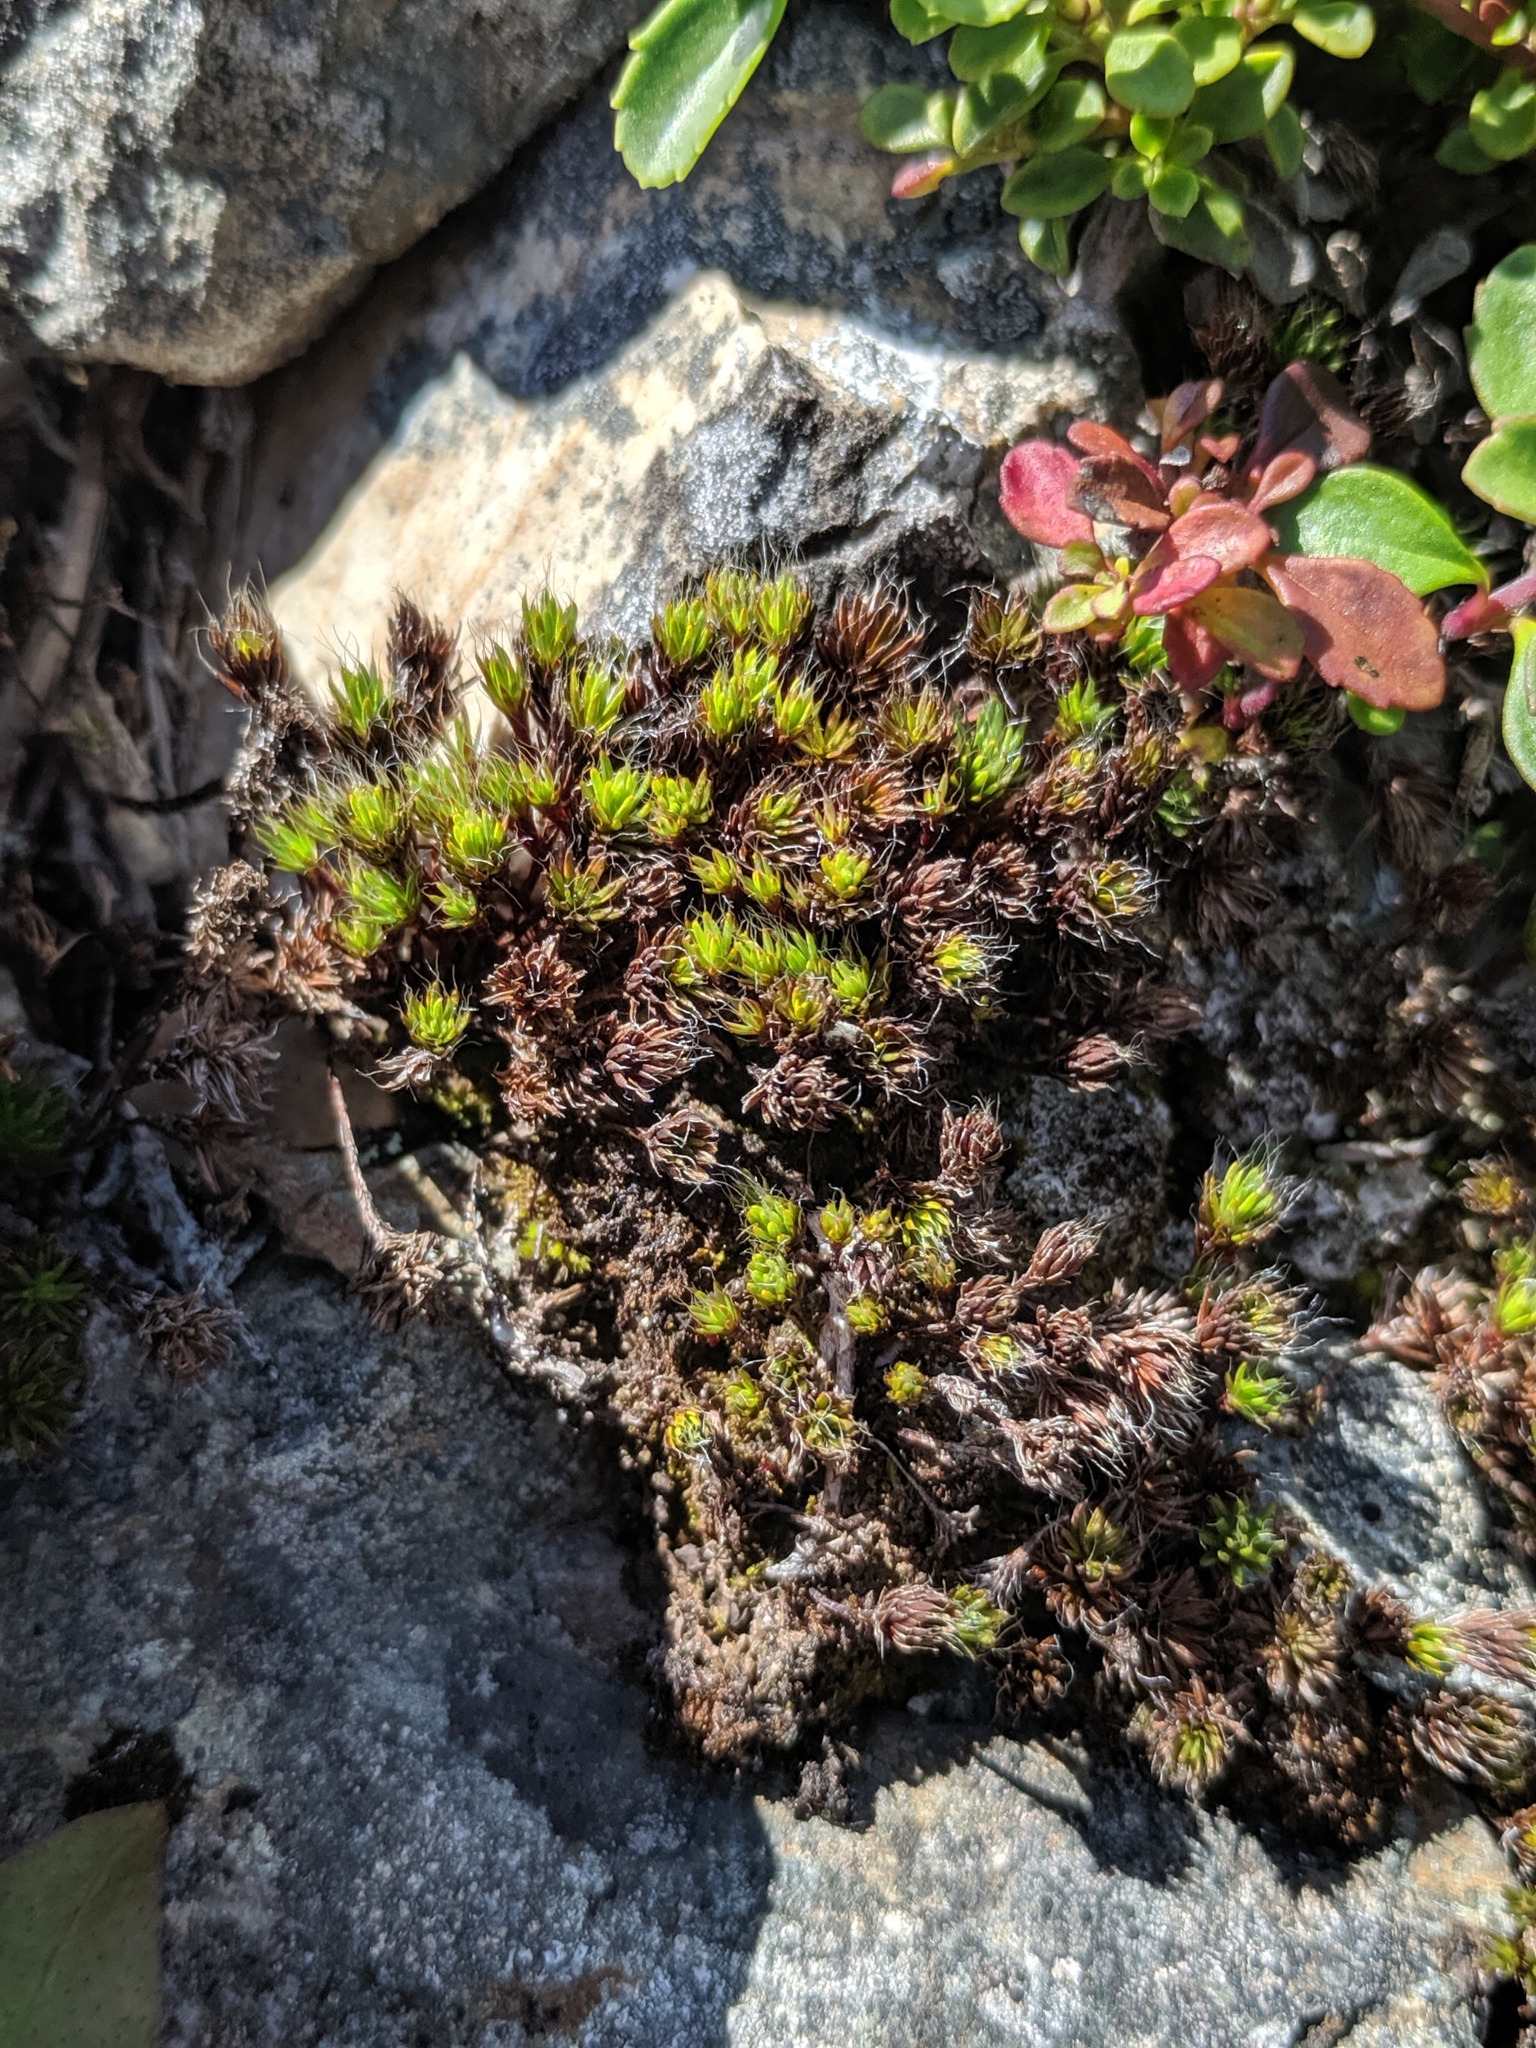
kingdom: Plantae
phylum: Bryophyta
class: Polytrichopsida
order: Polytrichales
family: Polytrichaceae
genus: Polytrichum
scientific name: Polytrichum piliferum
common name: Bristly haircap
